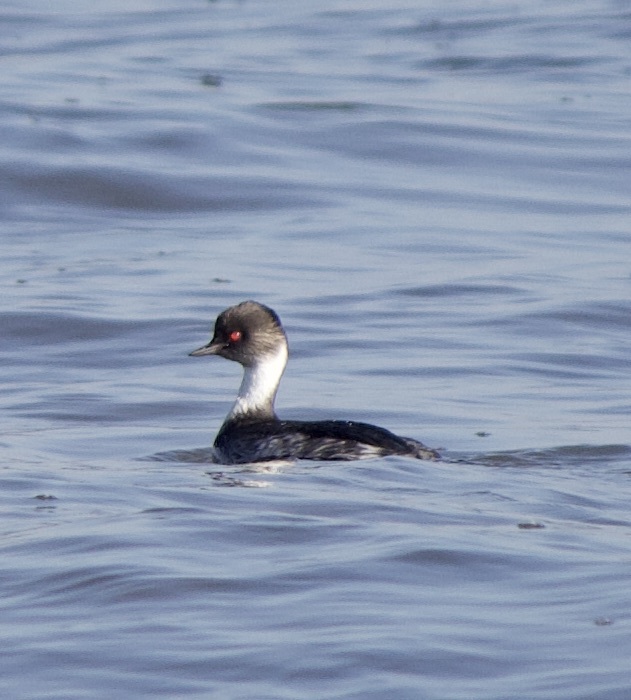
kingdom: Animalia
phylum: Chordata
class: Aves
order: Podicipediformes
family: Podicipedidae
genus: Podiceps
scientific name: Podiceps occipitalis
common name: Silvery grebe
